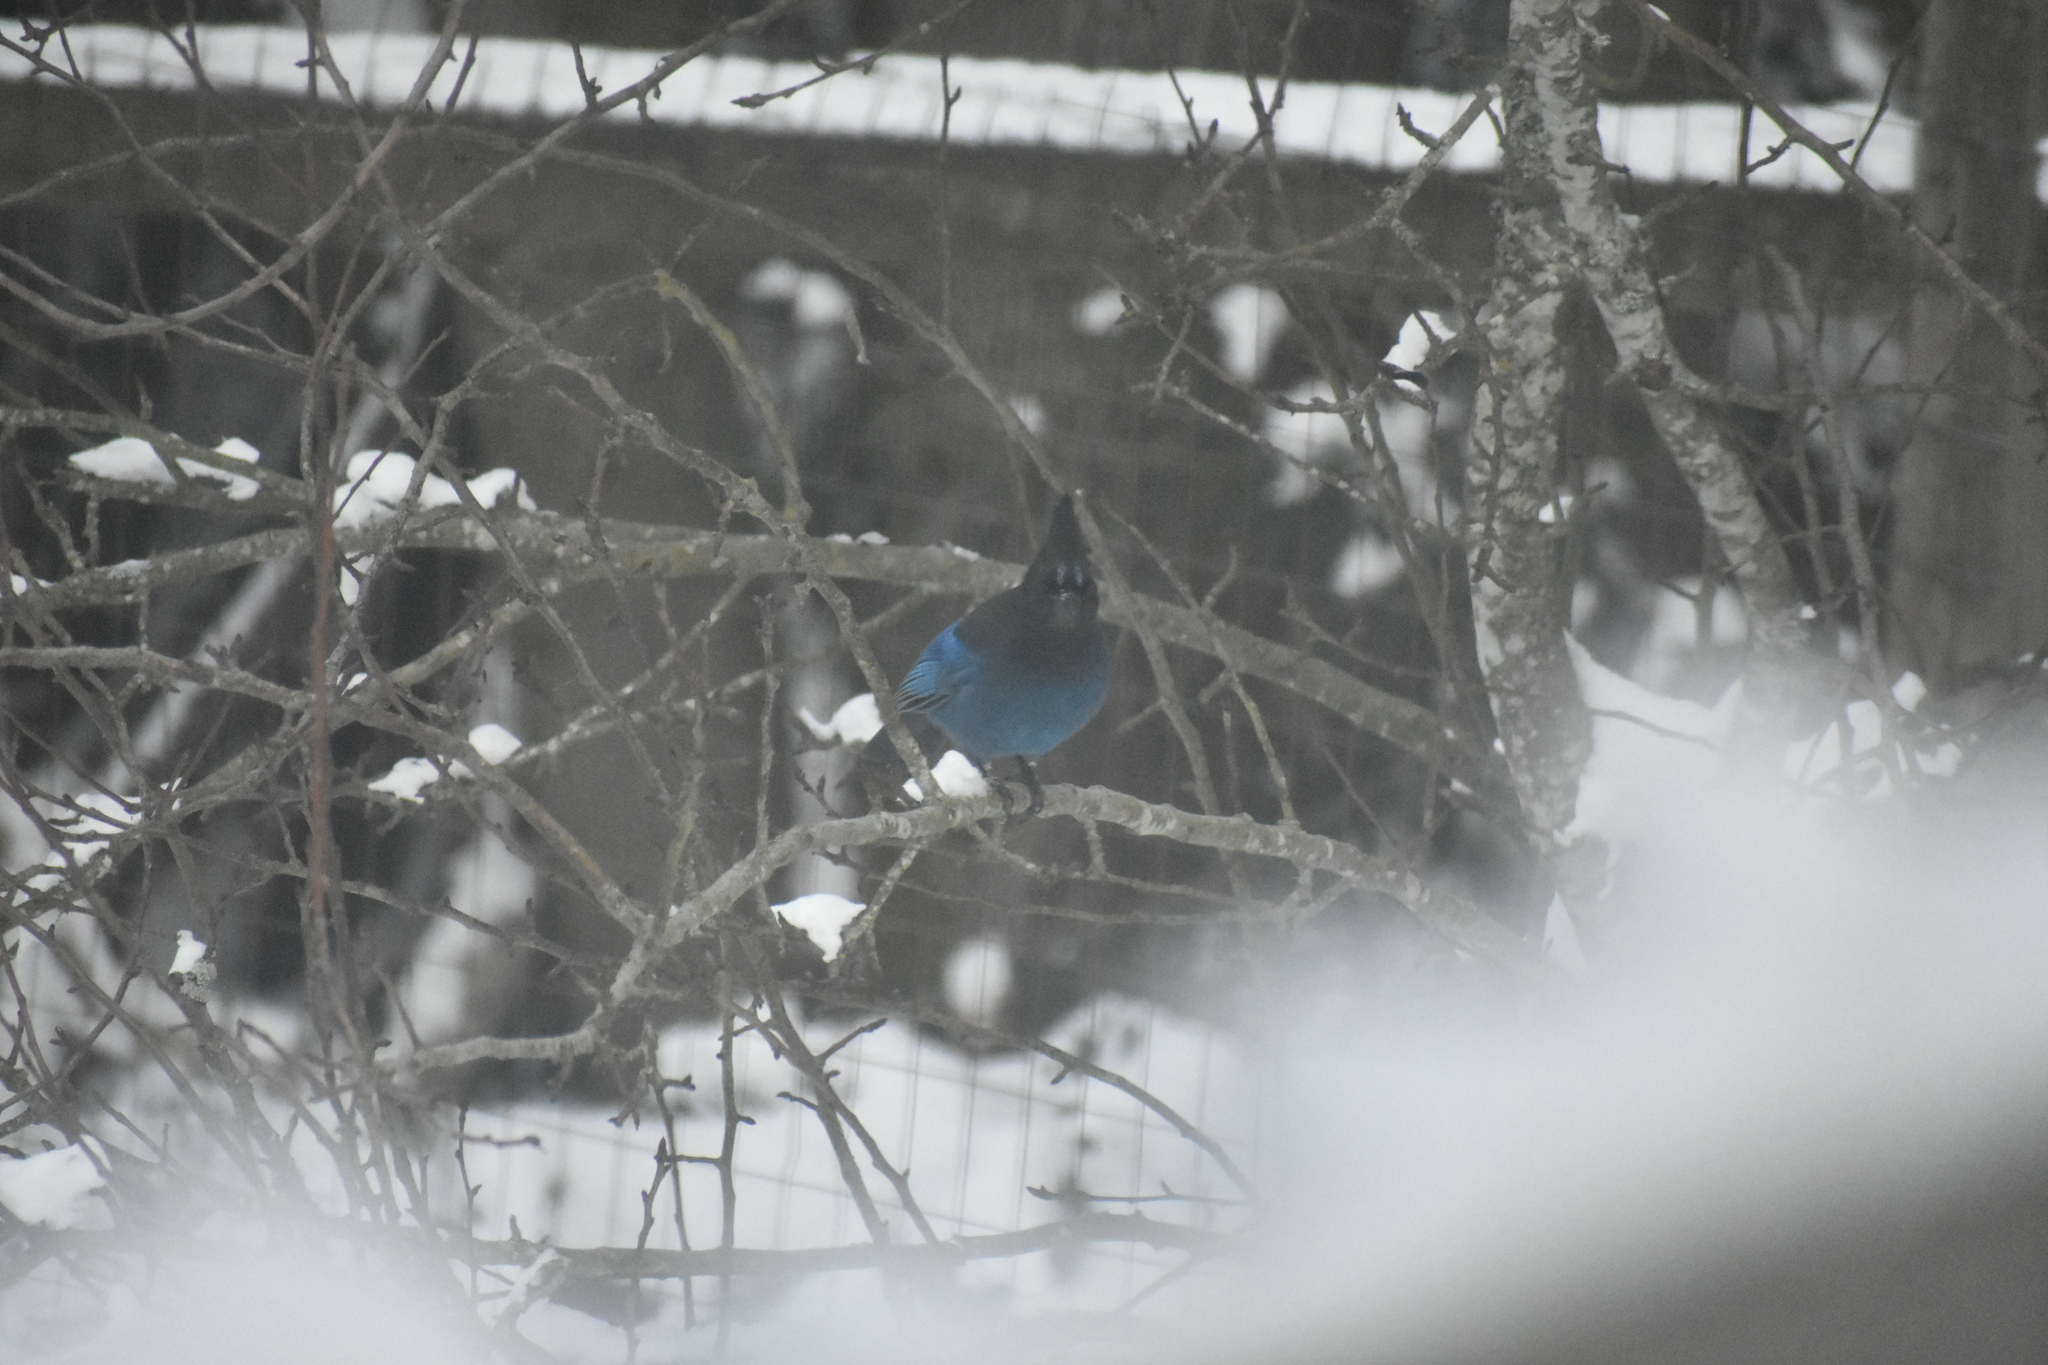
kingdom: Animalia
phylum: Chordata
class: Aves
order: Passeriformes
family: Corvidae
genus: Cyanocitta
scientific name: Cyanocitta stelleri
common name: Steller's jay
